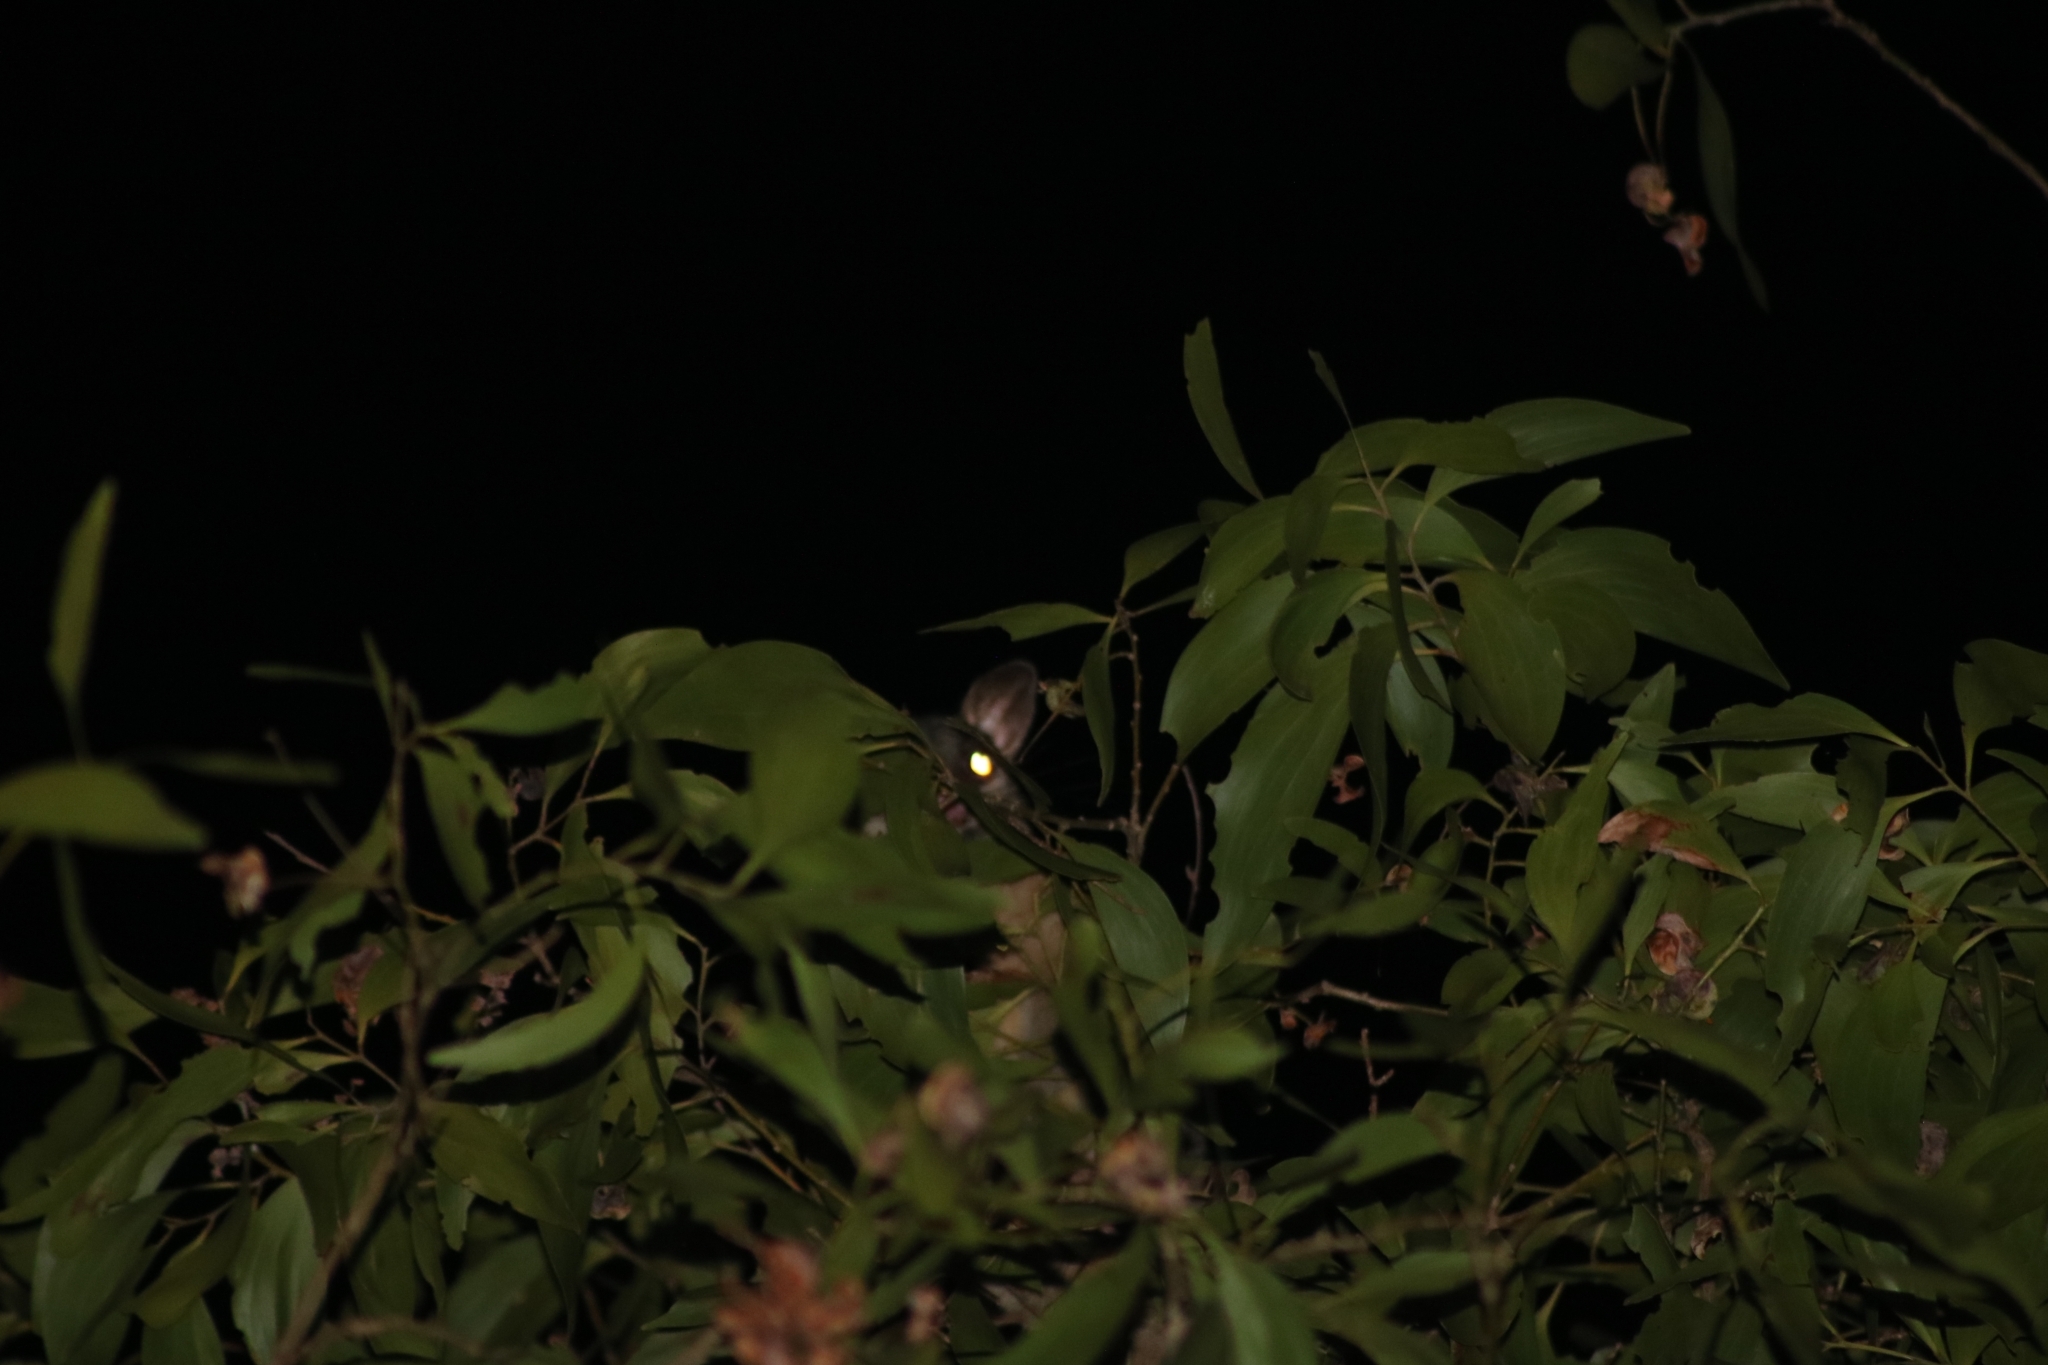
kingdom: Animalia
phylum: Chordata
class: Mammalia
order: Diprotodontia
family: Phalangeridae
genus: Trichosurus
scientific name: Trichosurus vulpecula
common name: Common brushtail
